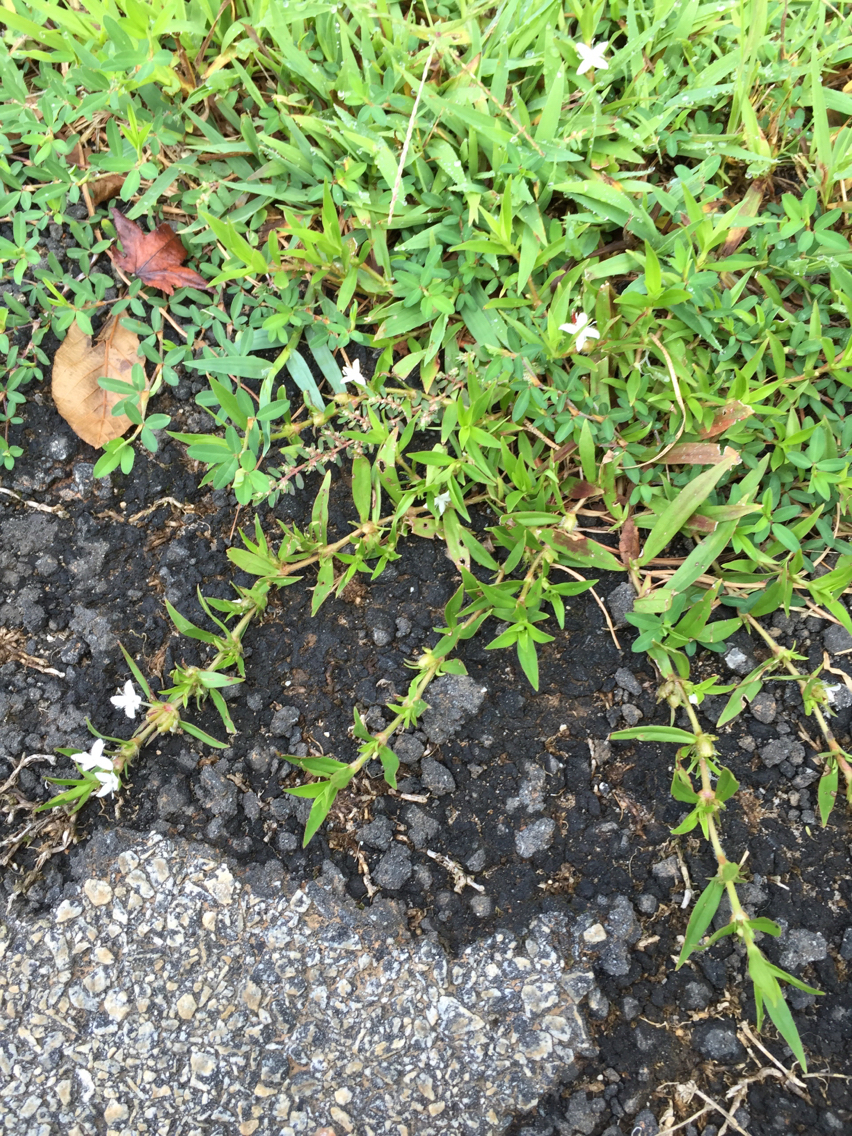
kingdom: Plantae
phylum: Tracheophyta
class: Magnoliopsida
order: Gentianales
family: Rubiaceae
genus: Diodia
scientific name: Diodia virginiana
